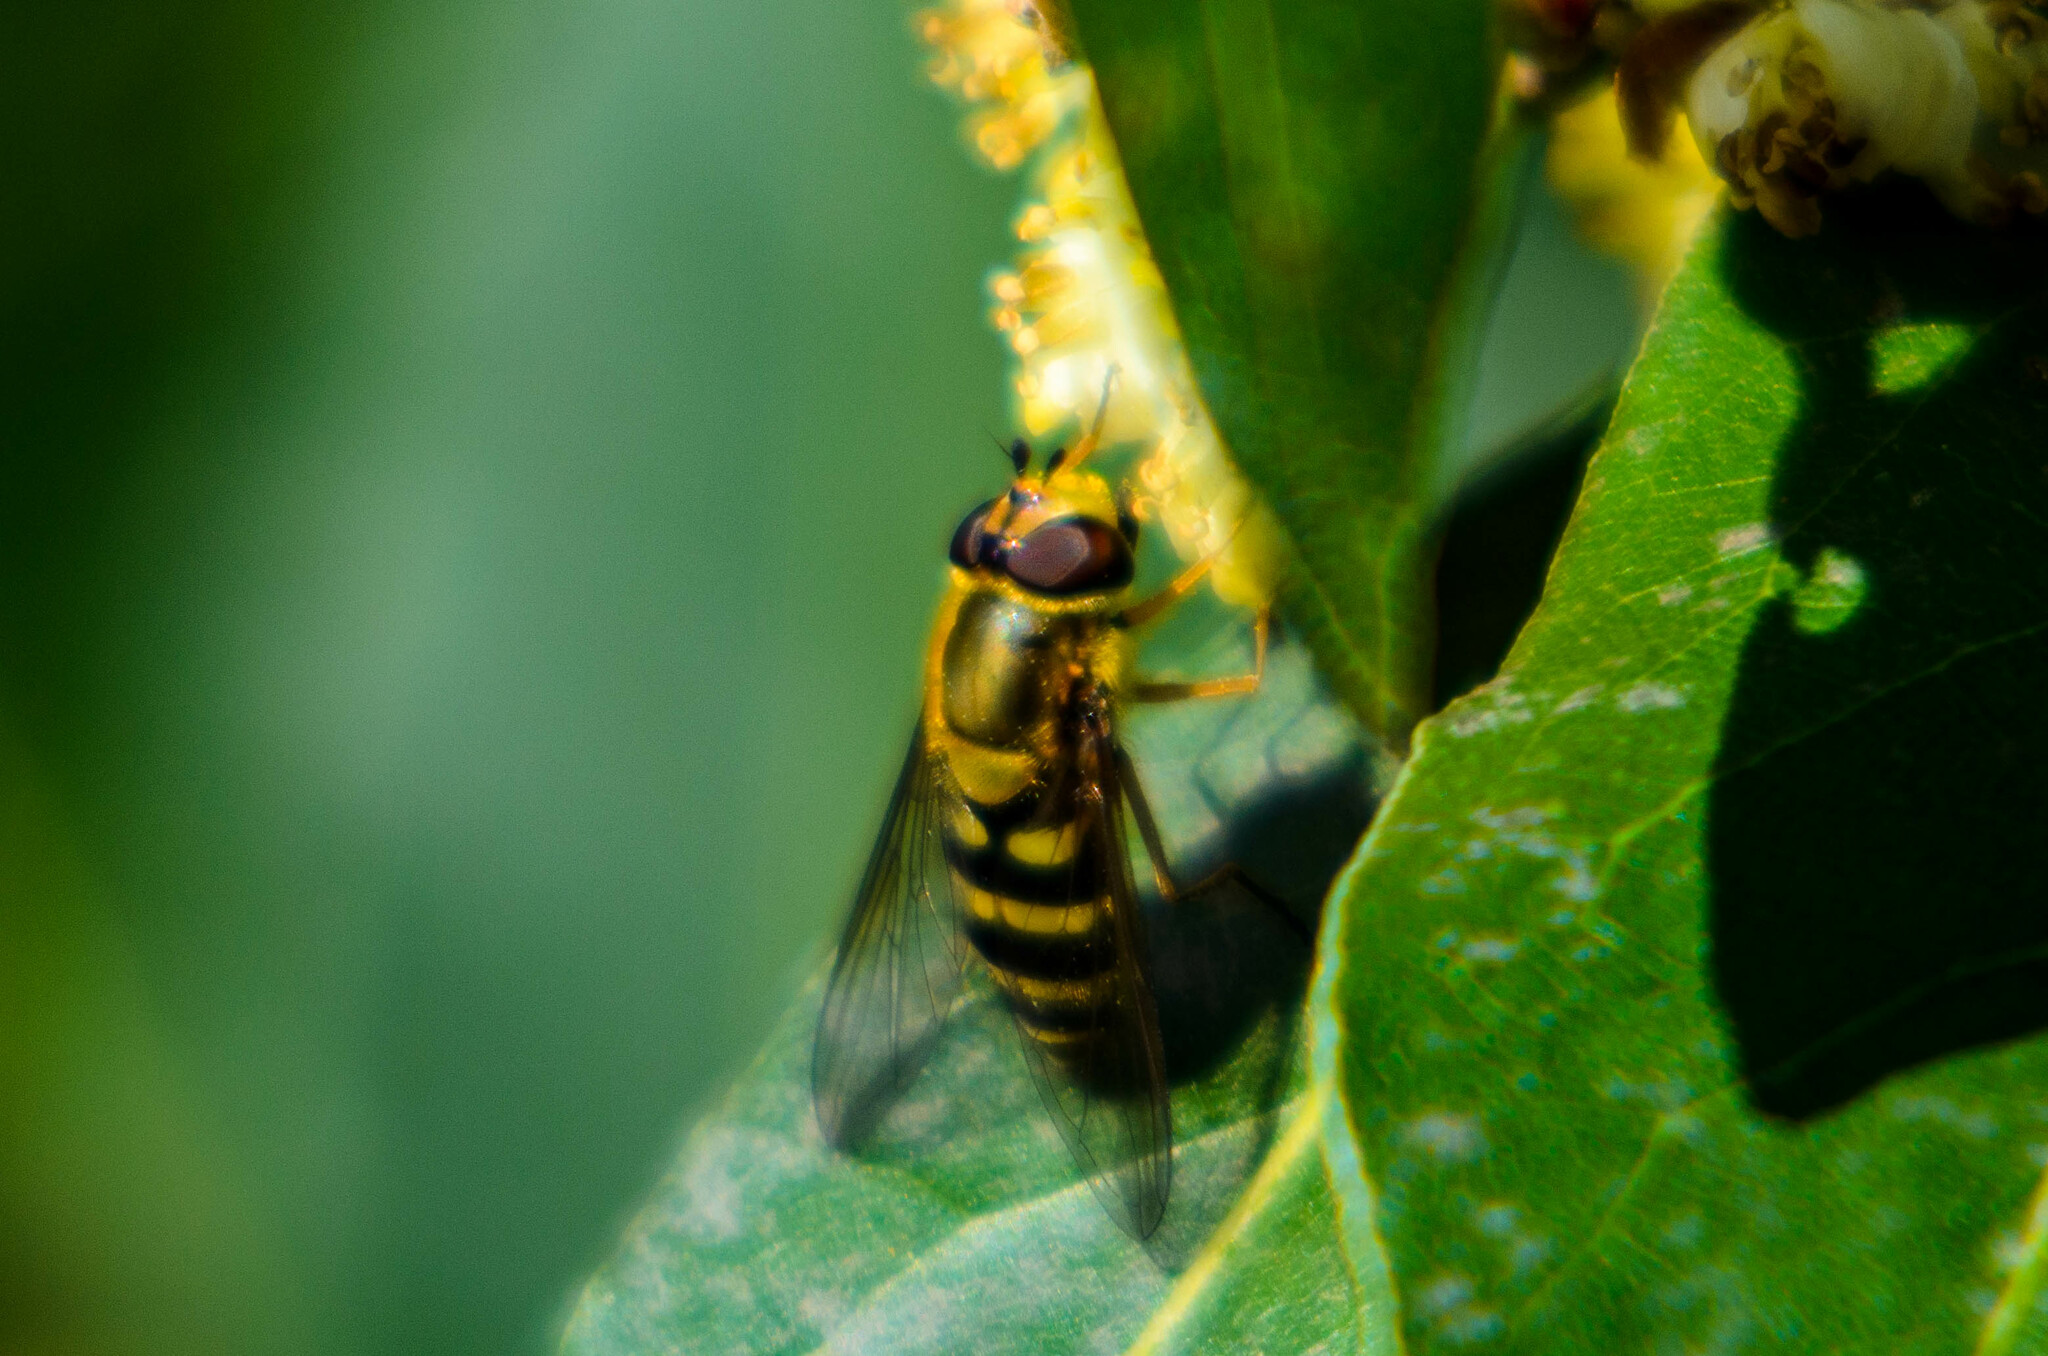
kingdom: Animalia
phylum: Arthropoda
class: Insecta
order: Diptera
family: Syrphidae
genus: Syrphus
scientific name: Syrphus ribesii
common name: Common flower fly
